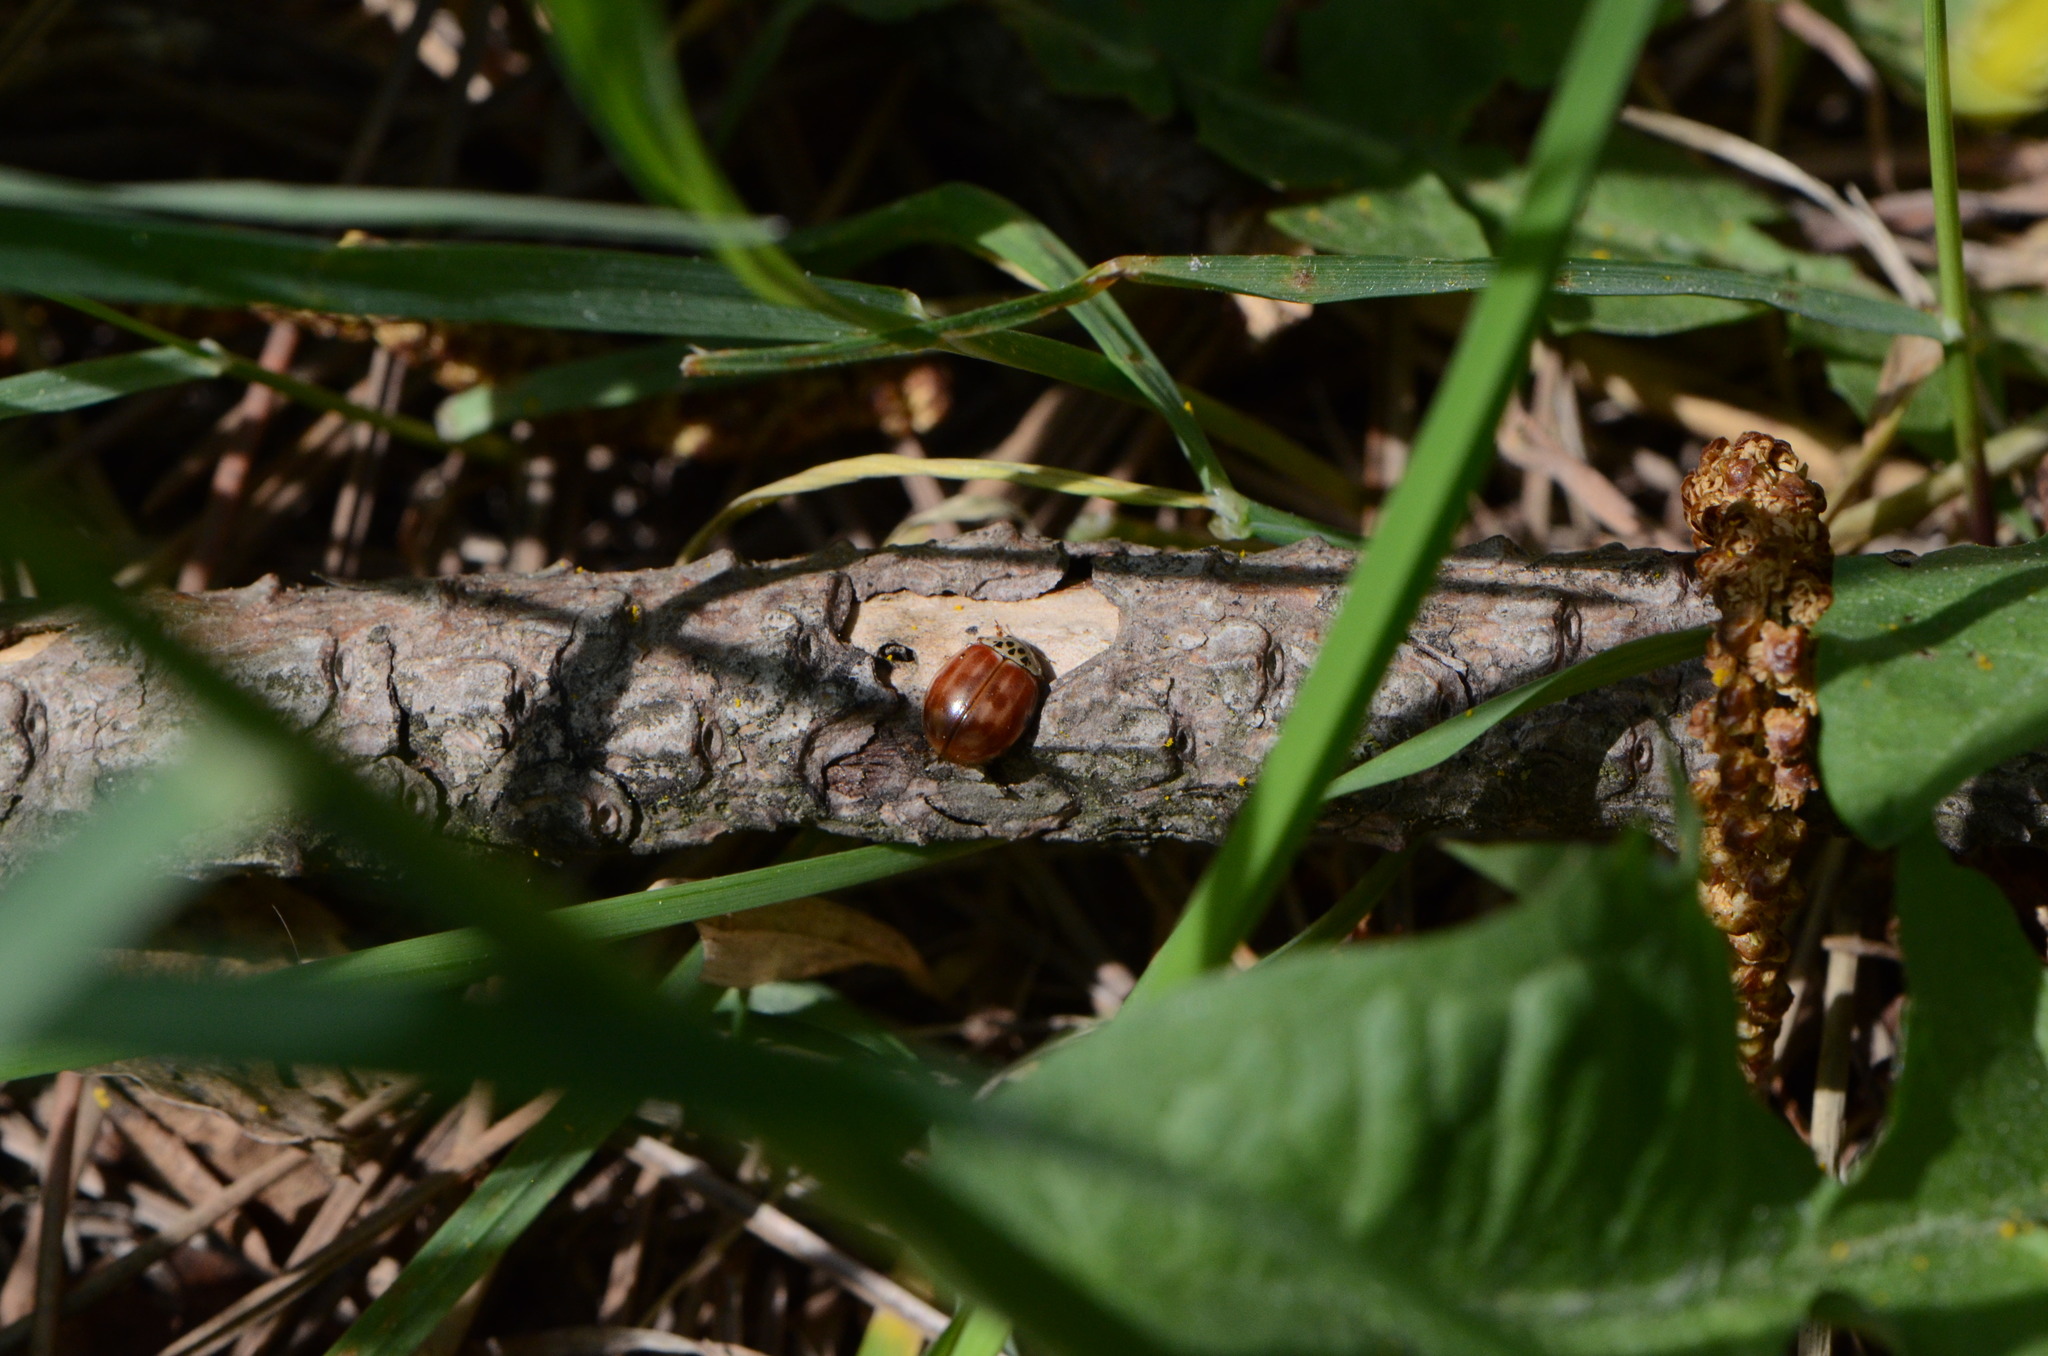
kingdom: Animalia
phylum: Arthropoda
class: Insecta
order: Coleoptera
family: Coccinellidae
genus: Harmonia
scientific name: Harmonia quadripunctata
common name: Cream-streaked ladybird
